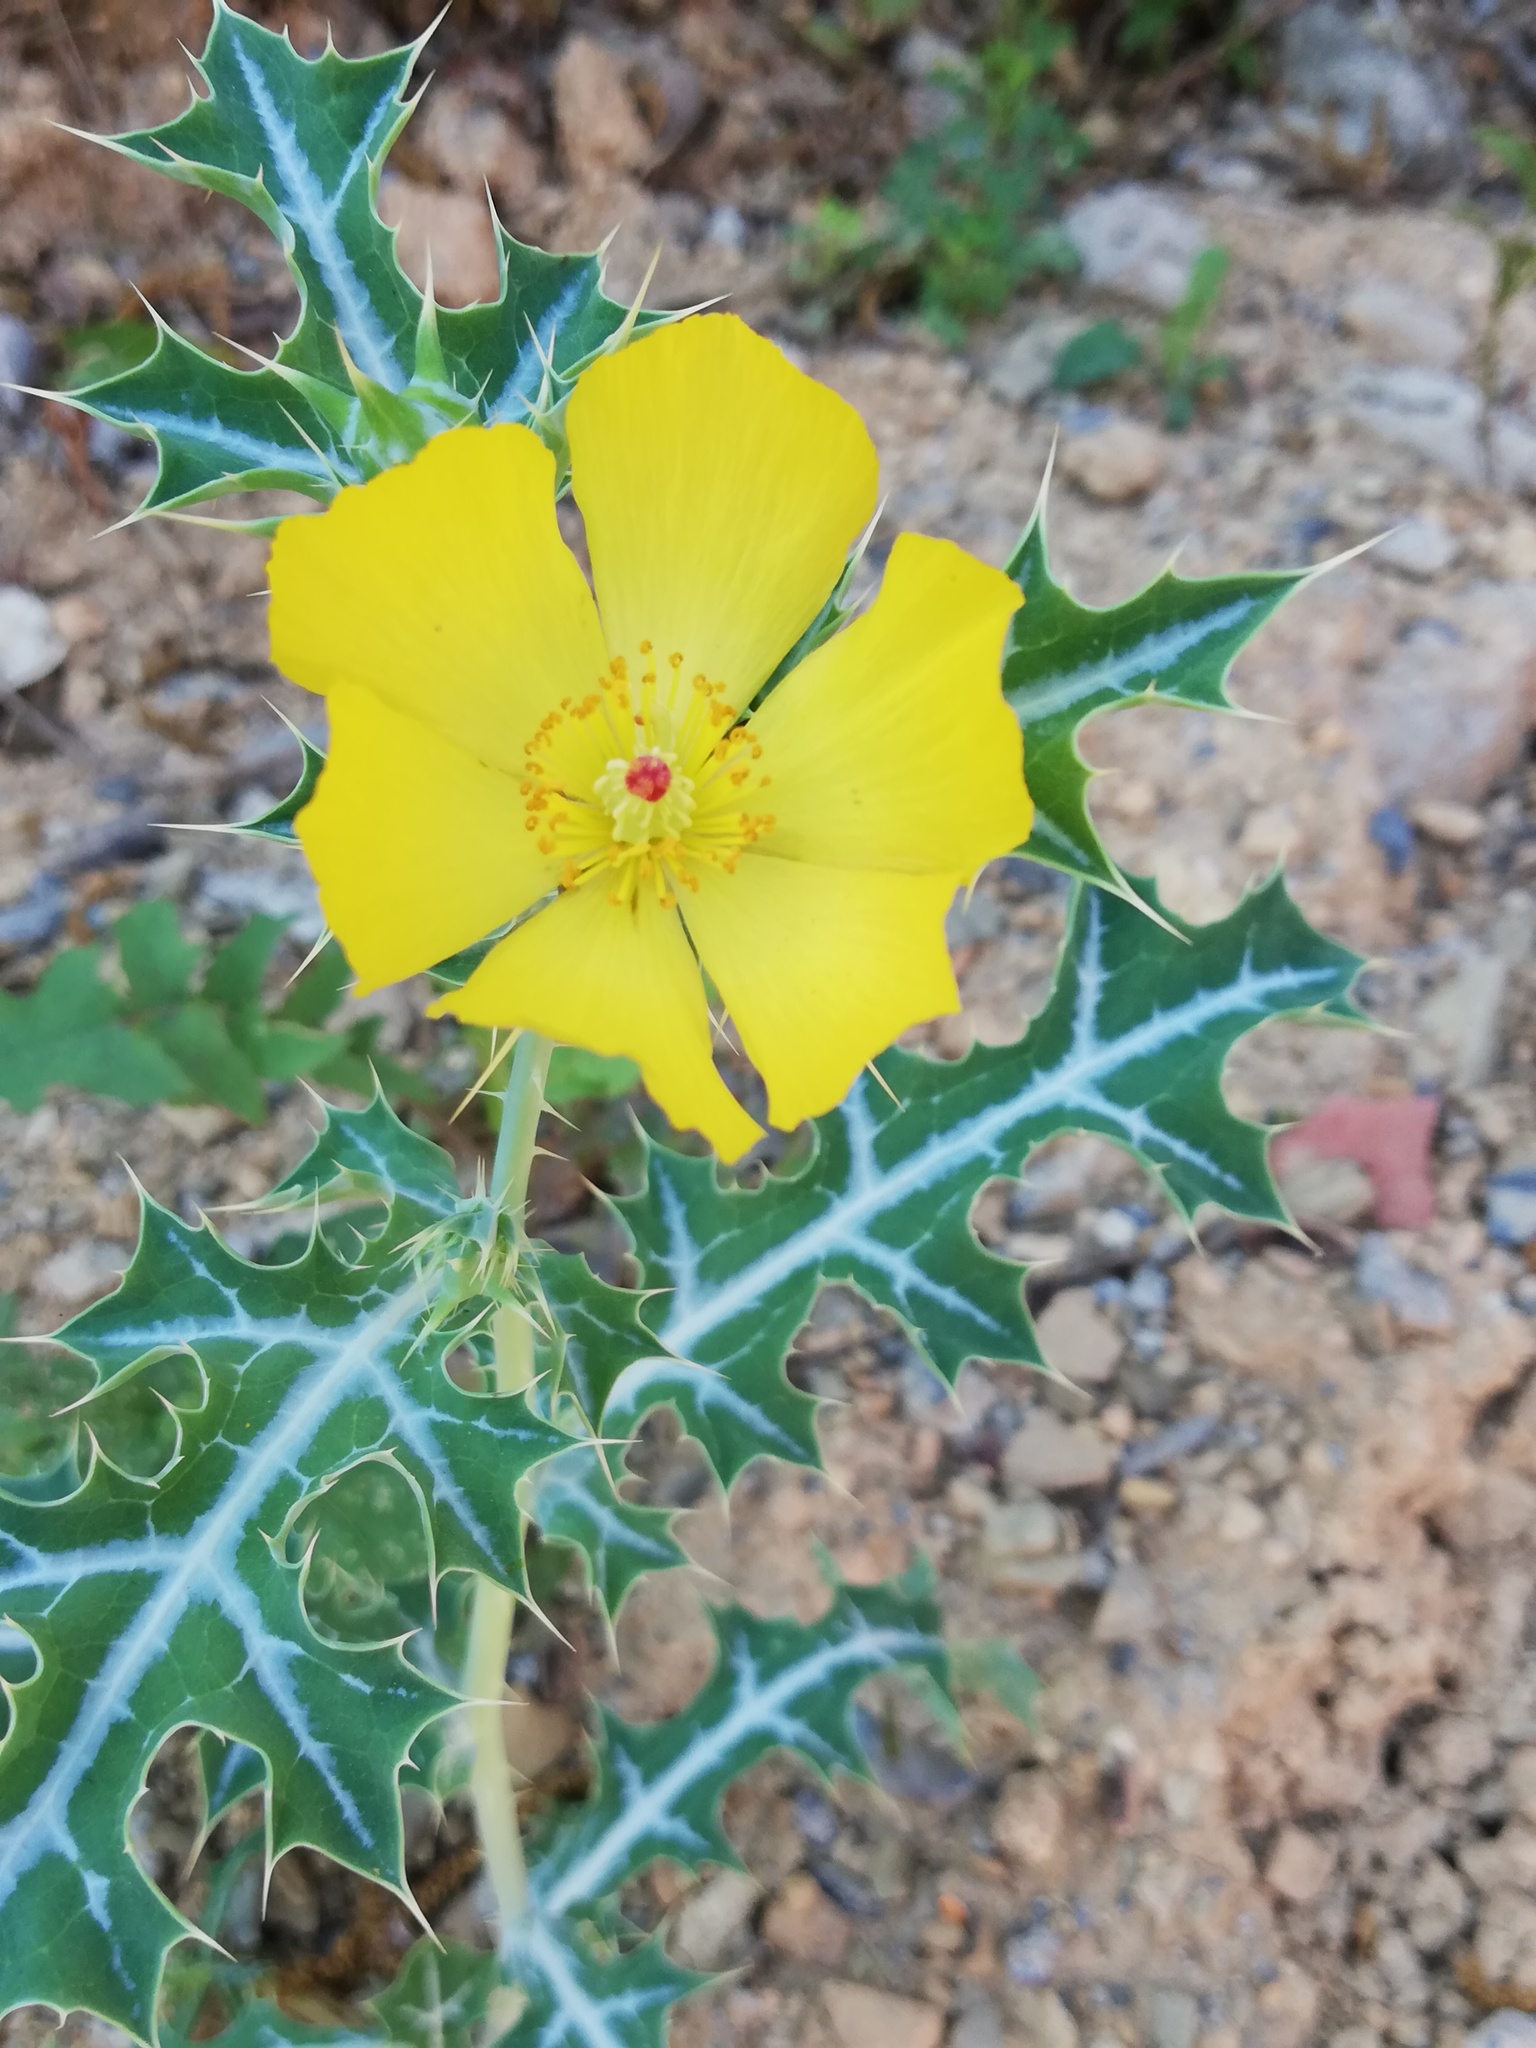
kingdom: Plantae
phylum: Tracheophyta
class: Magnoliopsida
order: Ranunculales
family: Papaveraceae
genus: Argemone
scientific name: Argemone mexicana
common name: Mexican poppy
